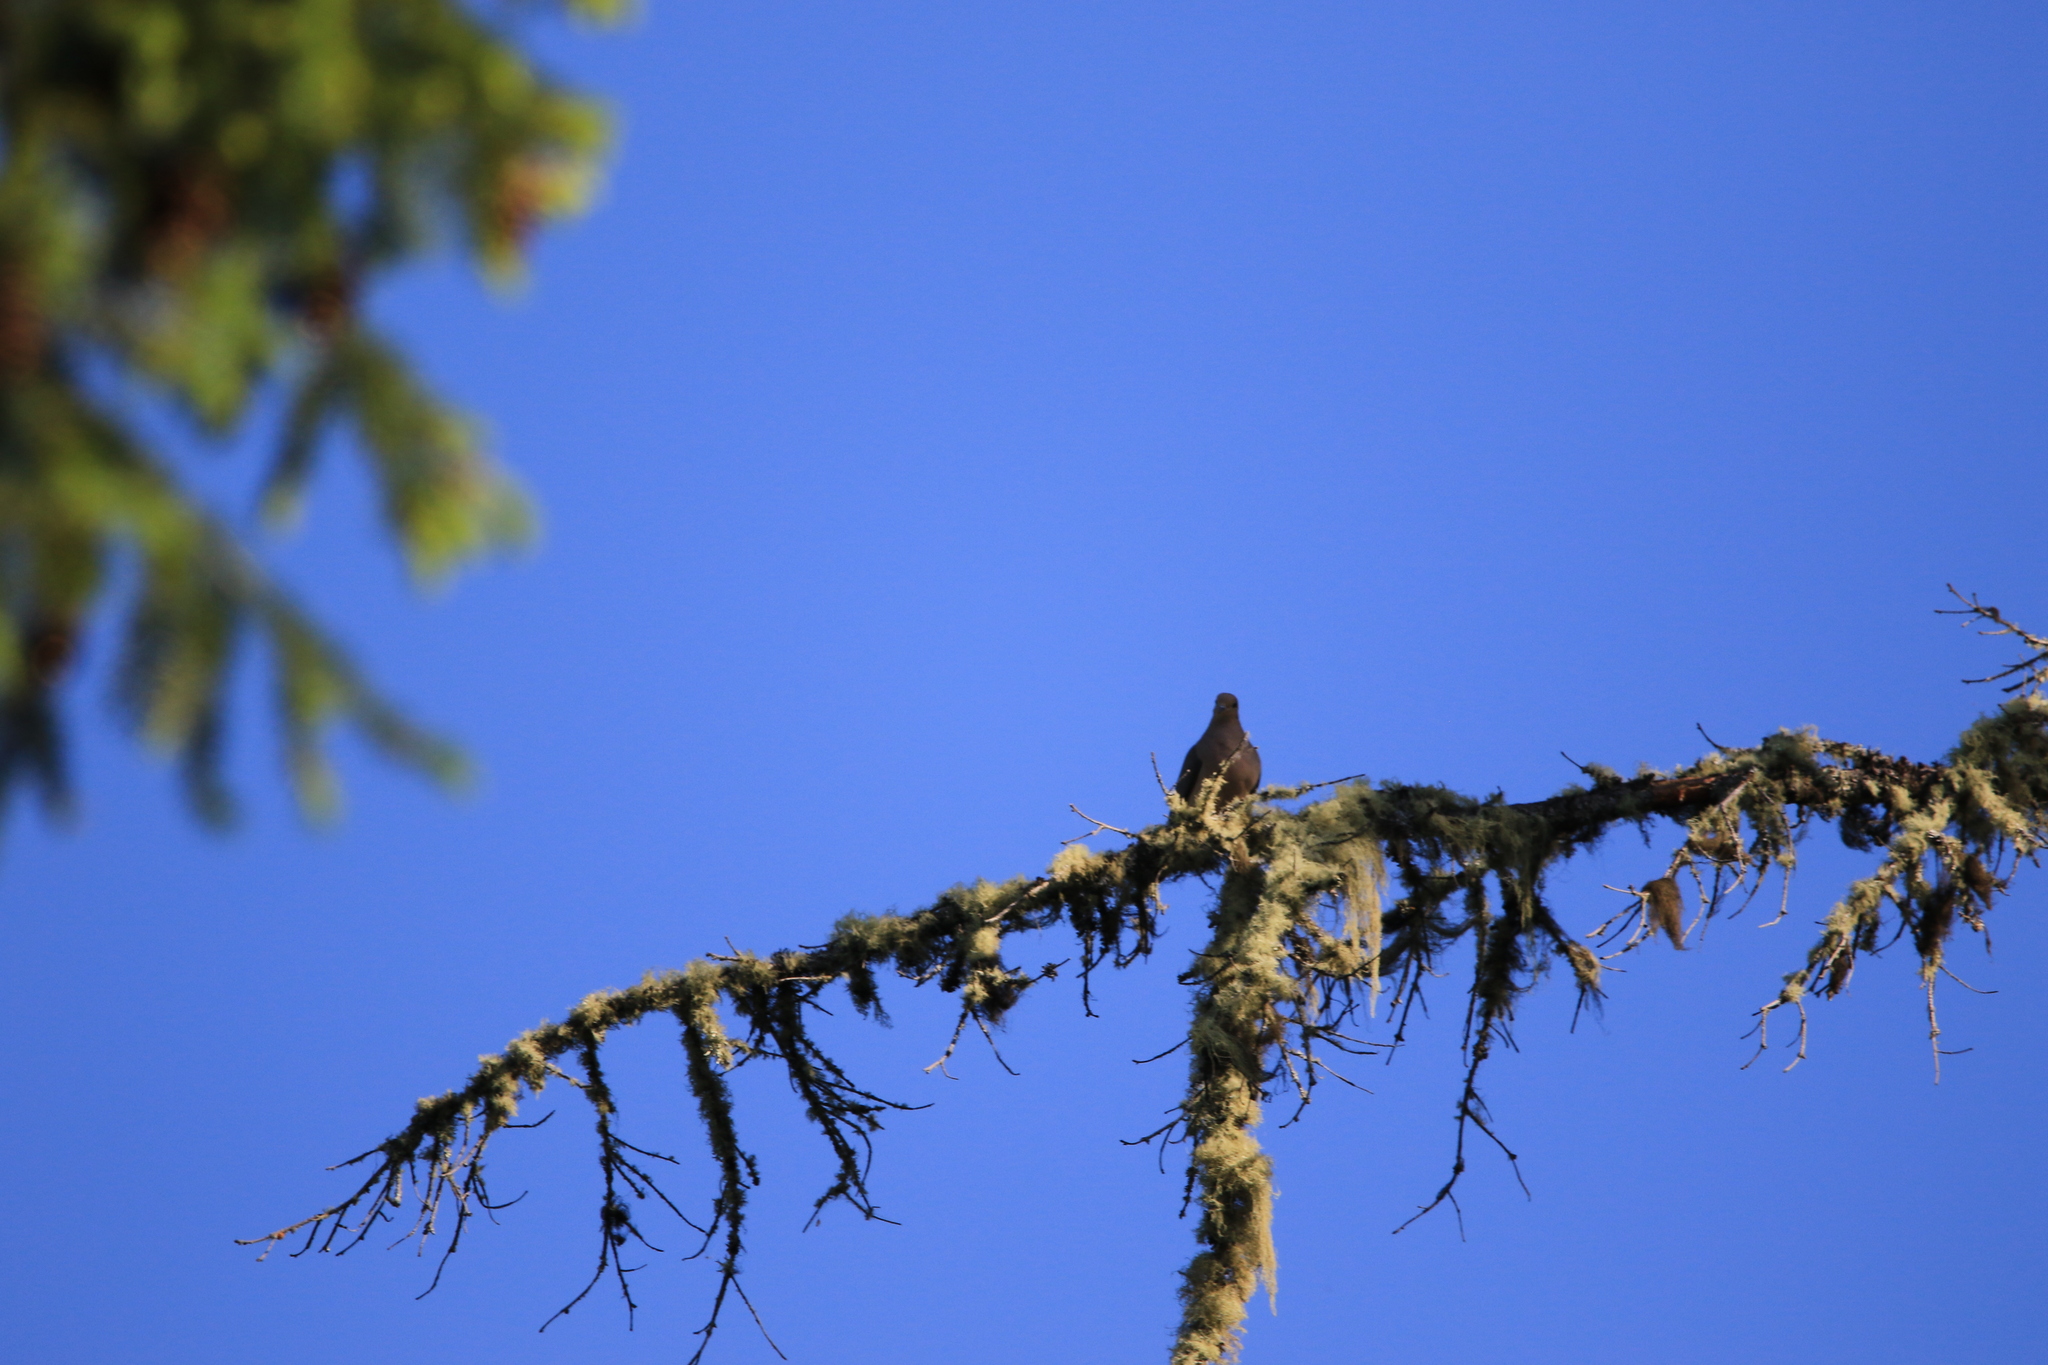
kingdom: Animalia
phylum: Chordata
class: Aves
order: Columbiformes
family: Columbidae
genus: Zenaida
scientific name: Zenaida macroura
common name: Mourning dove
